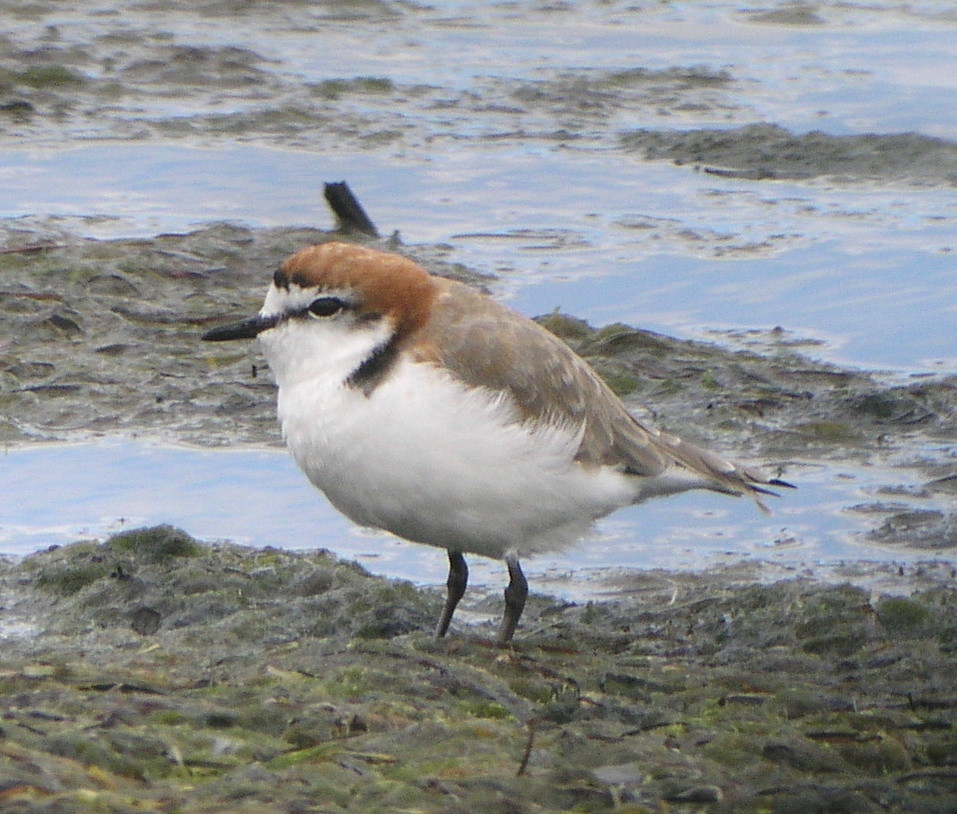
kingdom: Animalia
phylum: Chordata
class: Aves
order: Charadriiformes
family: Charadriidae
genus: Anarhynchus
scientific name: Anarhynchus
